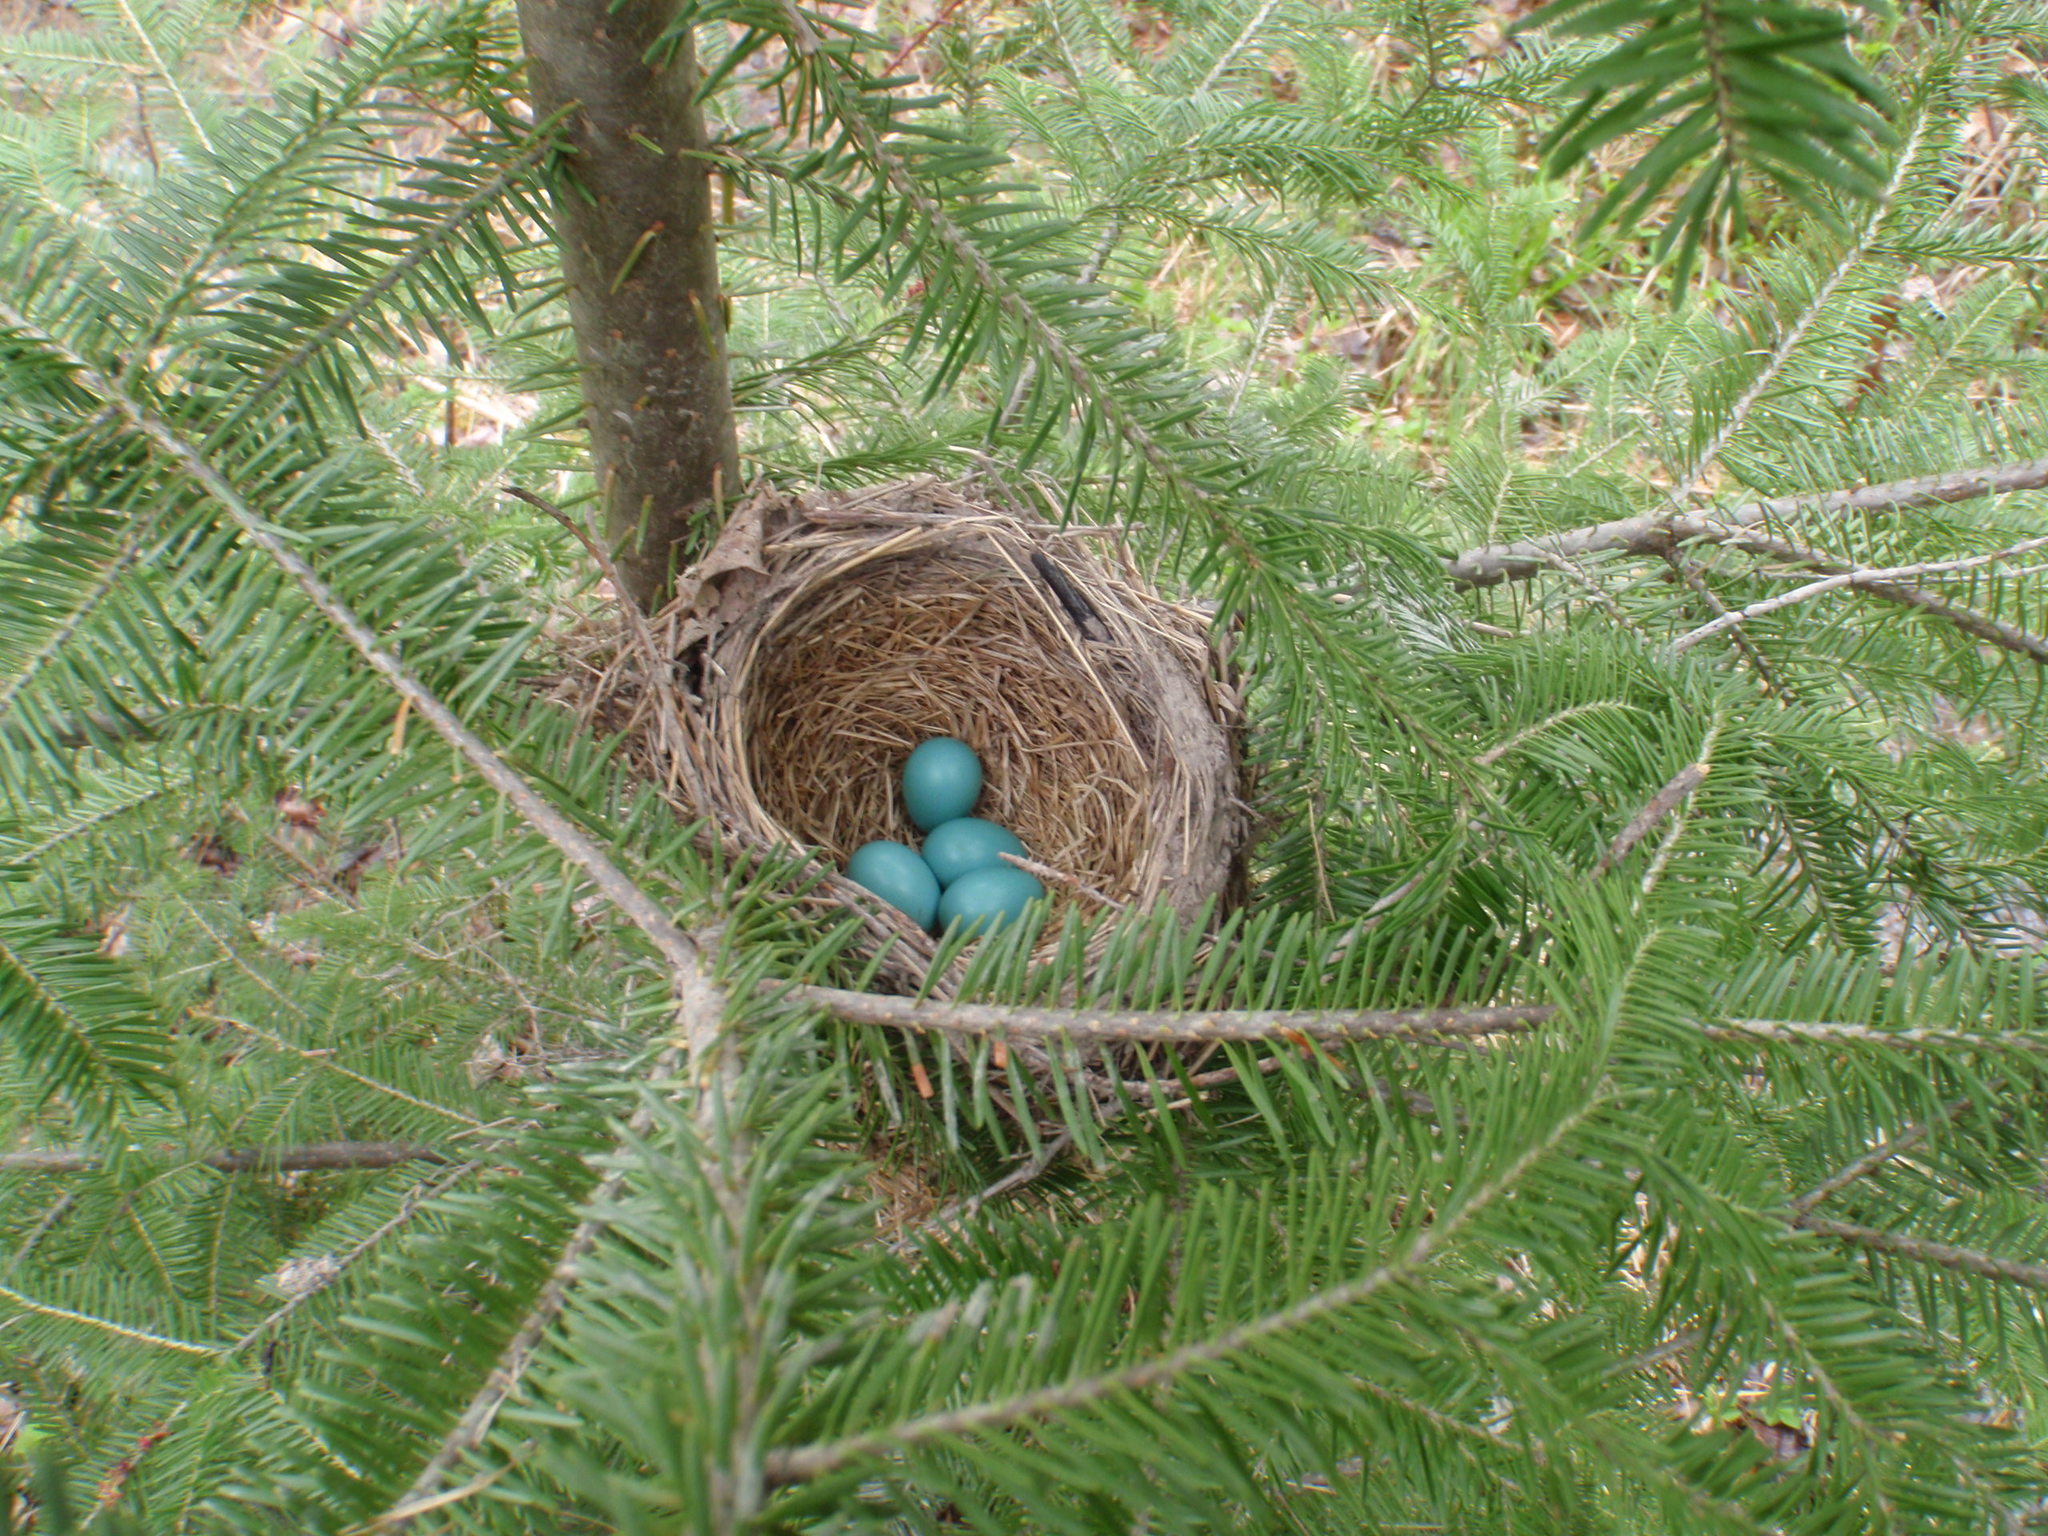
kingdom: Animalia
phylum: Chordata
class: Aves
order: Passeriformes
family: Turdidae
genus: Turdus
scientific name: Turdus migratorius
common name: American robin
